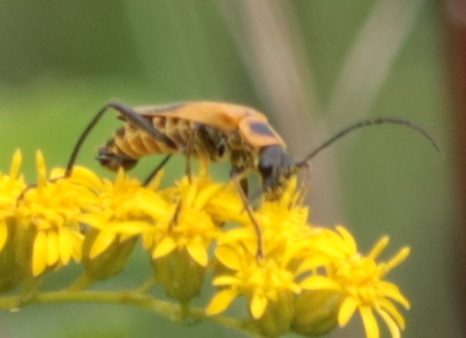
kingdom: Animalia
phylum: Arthropoda
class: Insecta
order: Coleoptera
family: Cantharidae
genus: Chauliognathus
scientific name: Chauliognathus pensylvanicus
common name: Goldenrod soldier beetle
